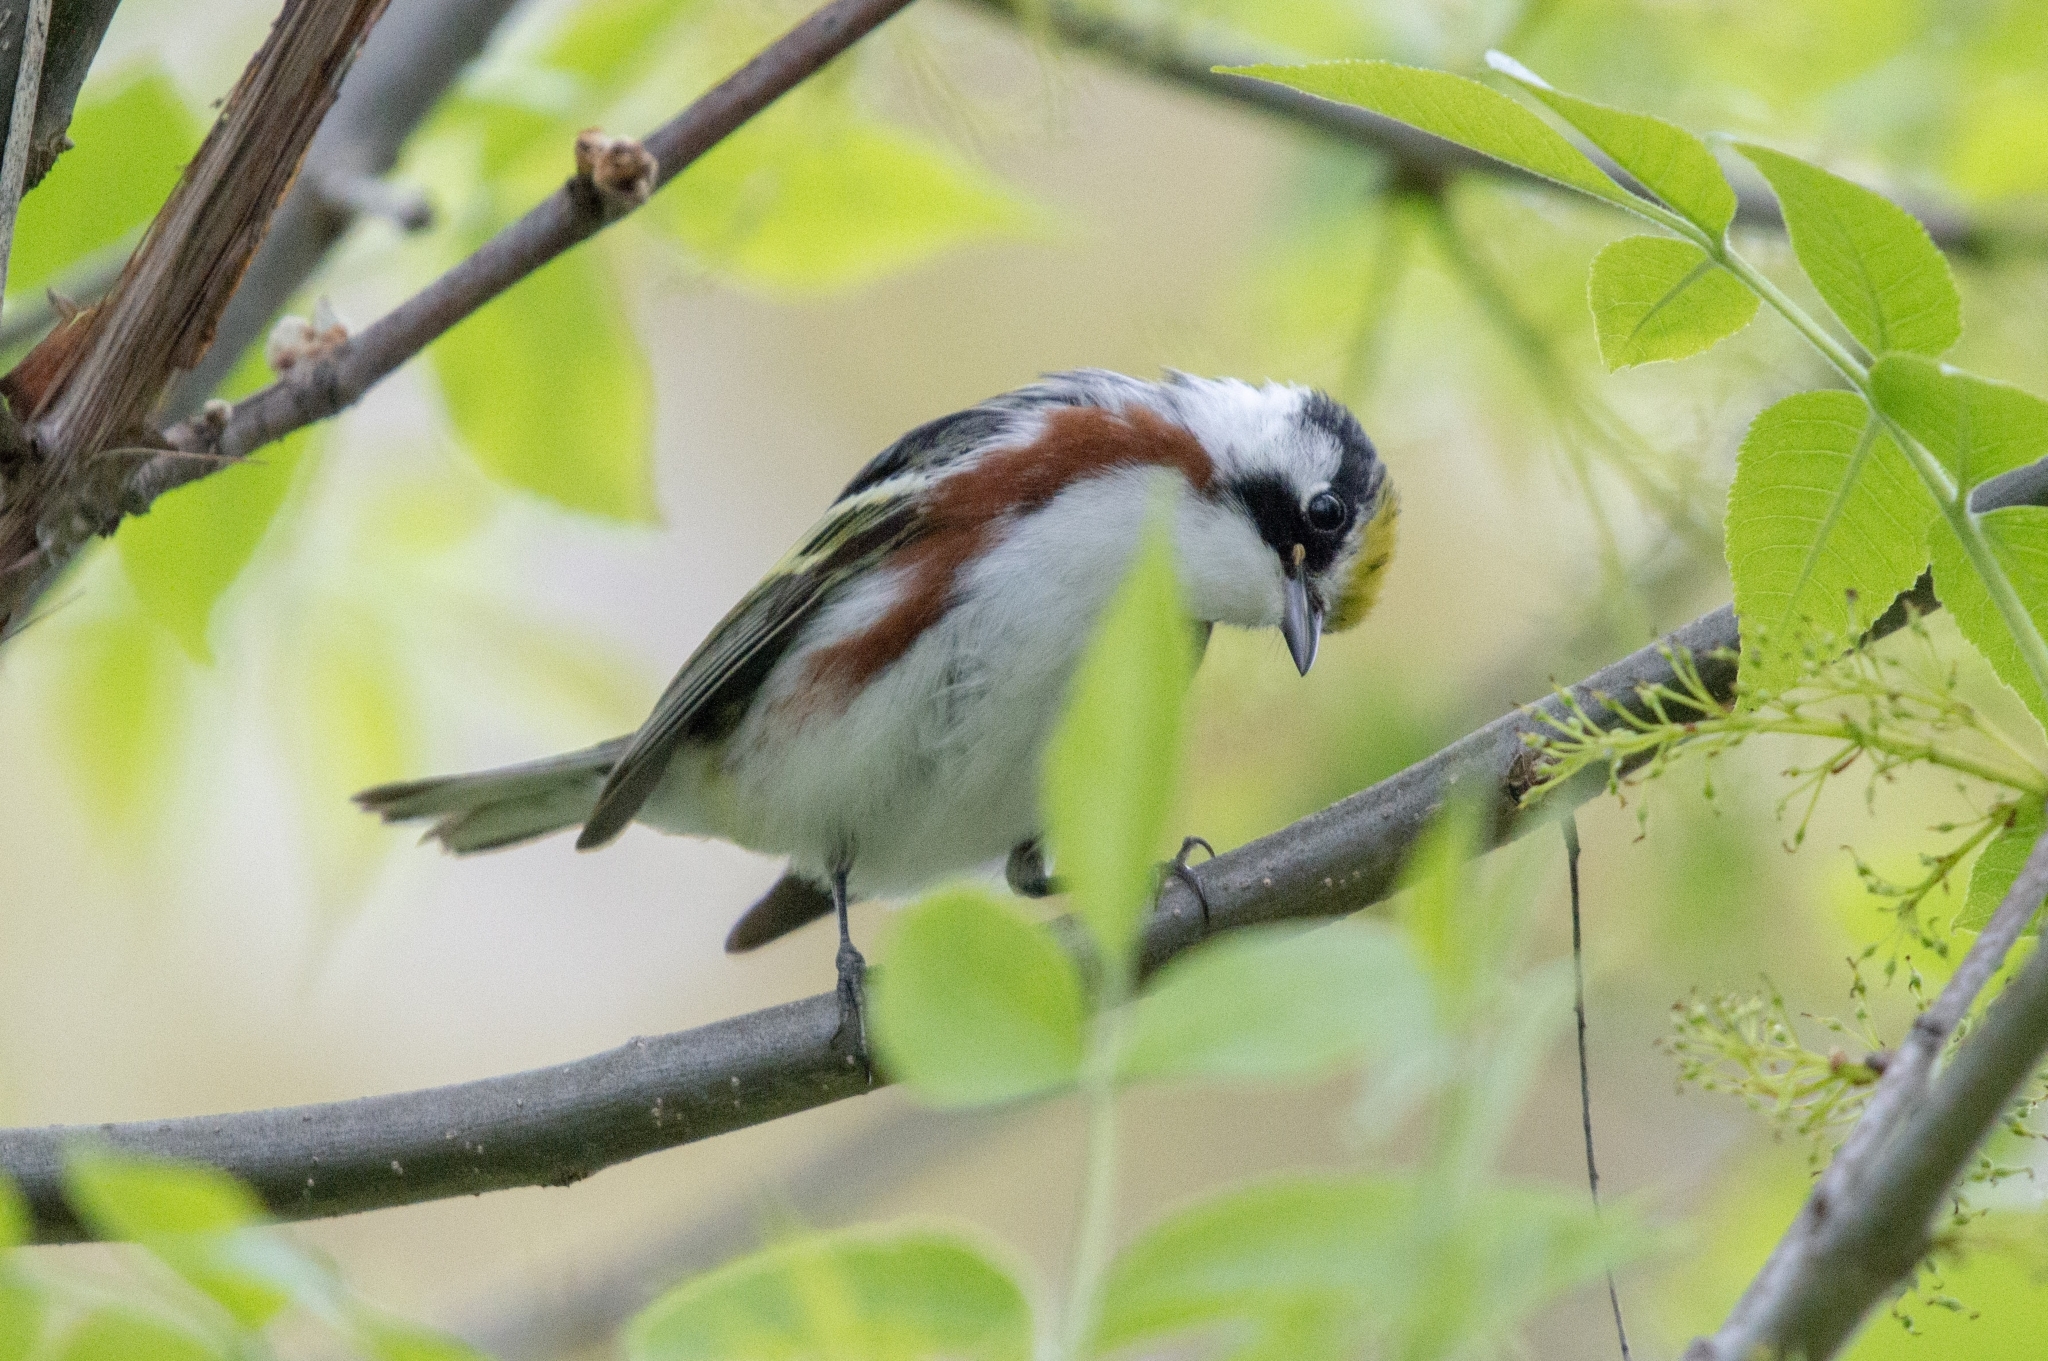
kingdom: Animalia
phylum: Chordata
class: Aves
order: Passeriformes
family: Parulidae
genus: Setophaga
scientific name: Setophaga pensylvanica
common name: Chestnut-sided warbler
